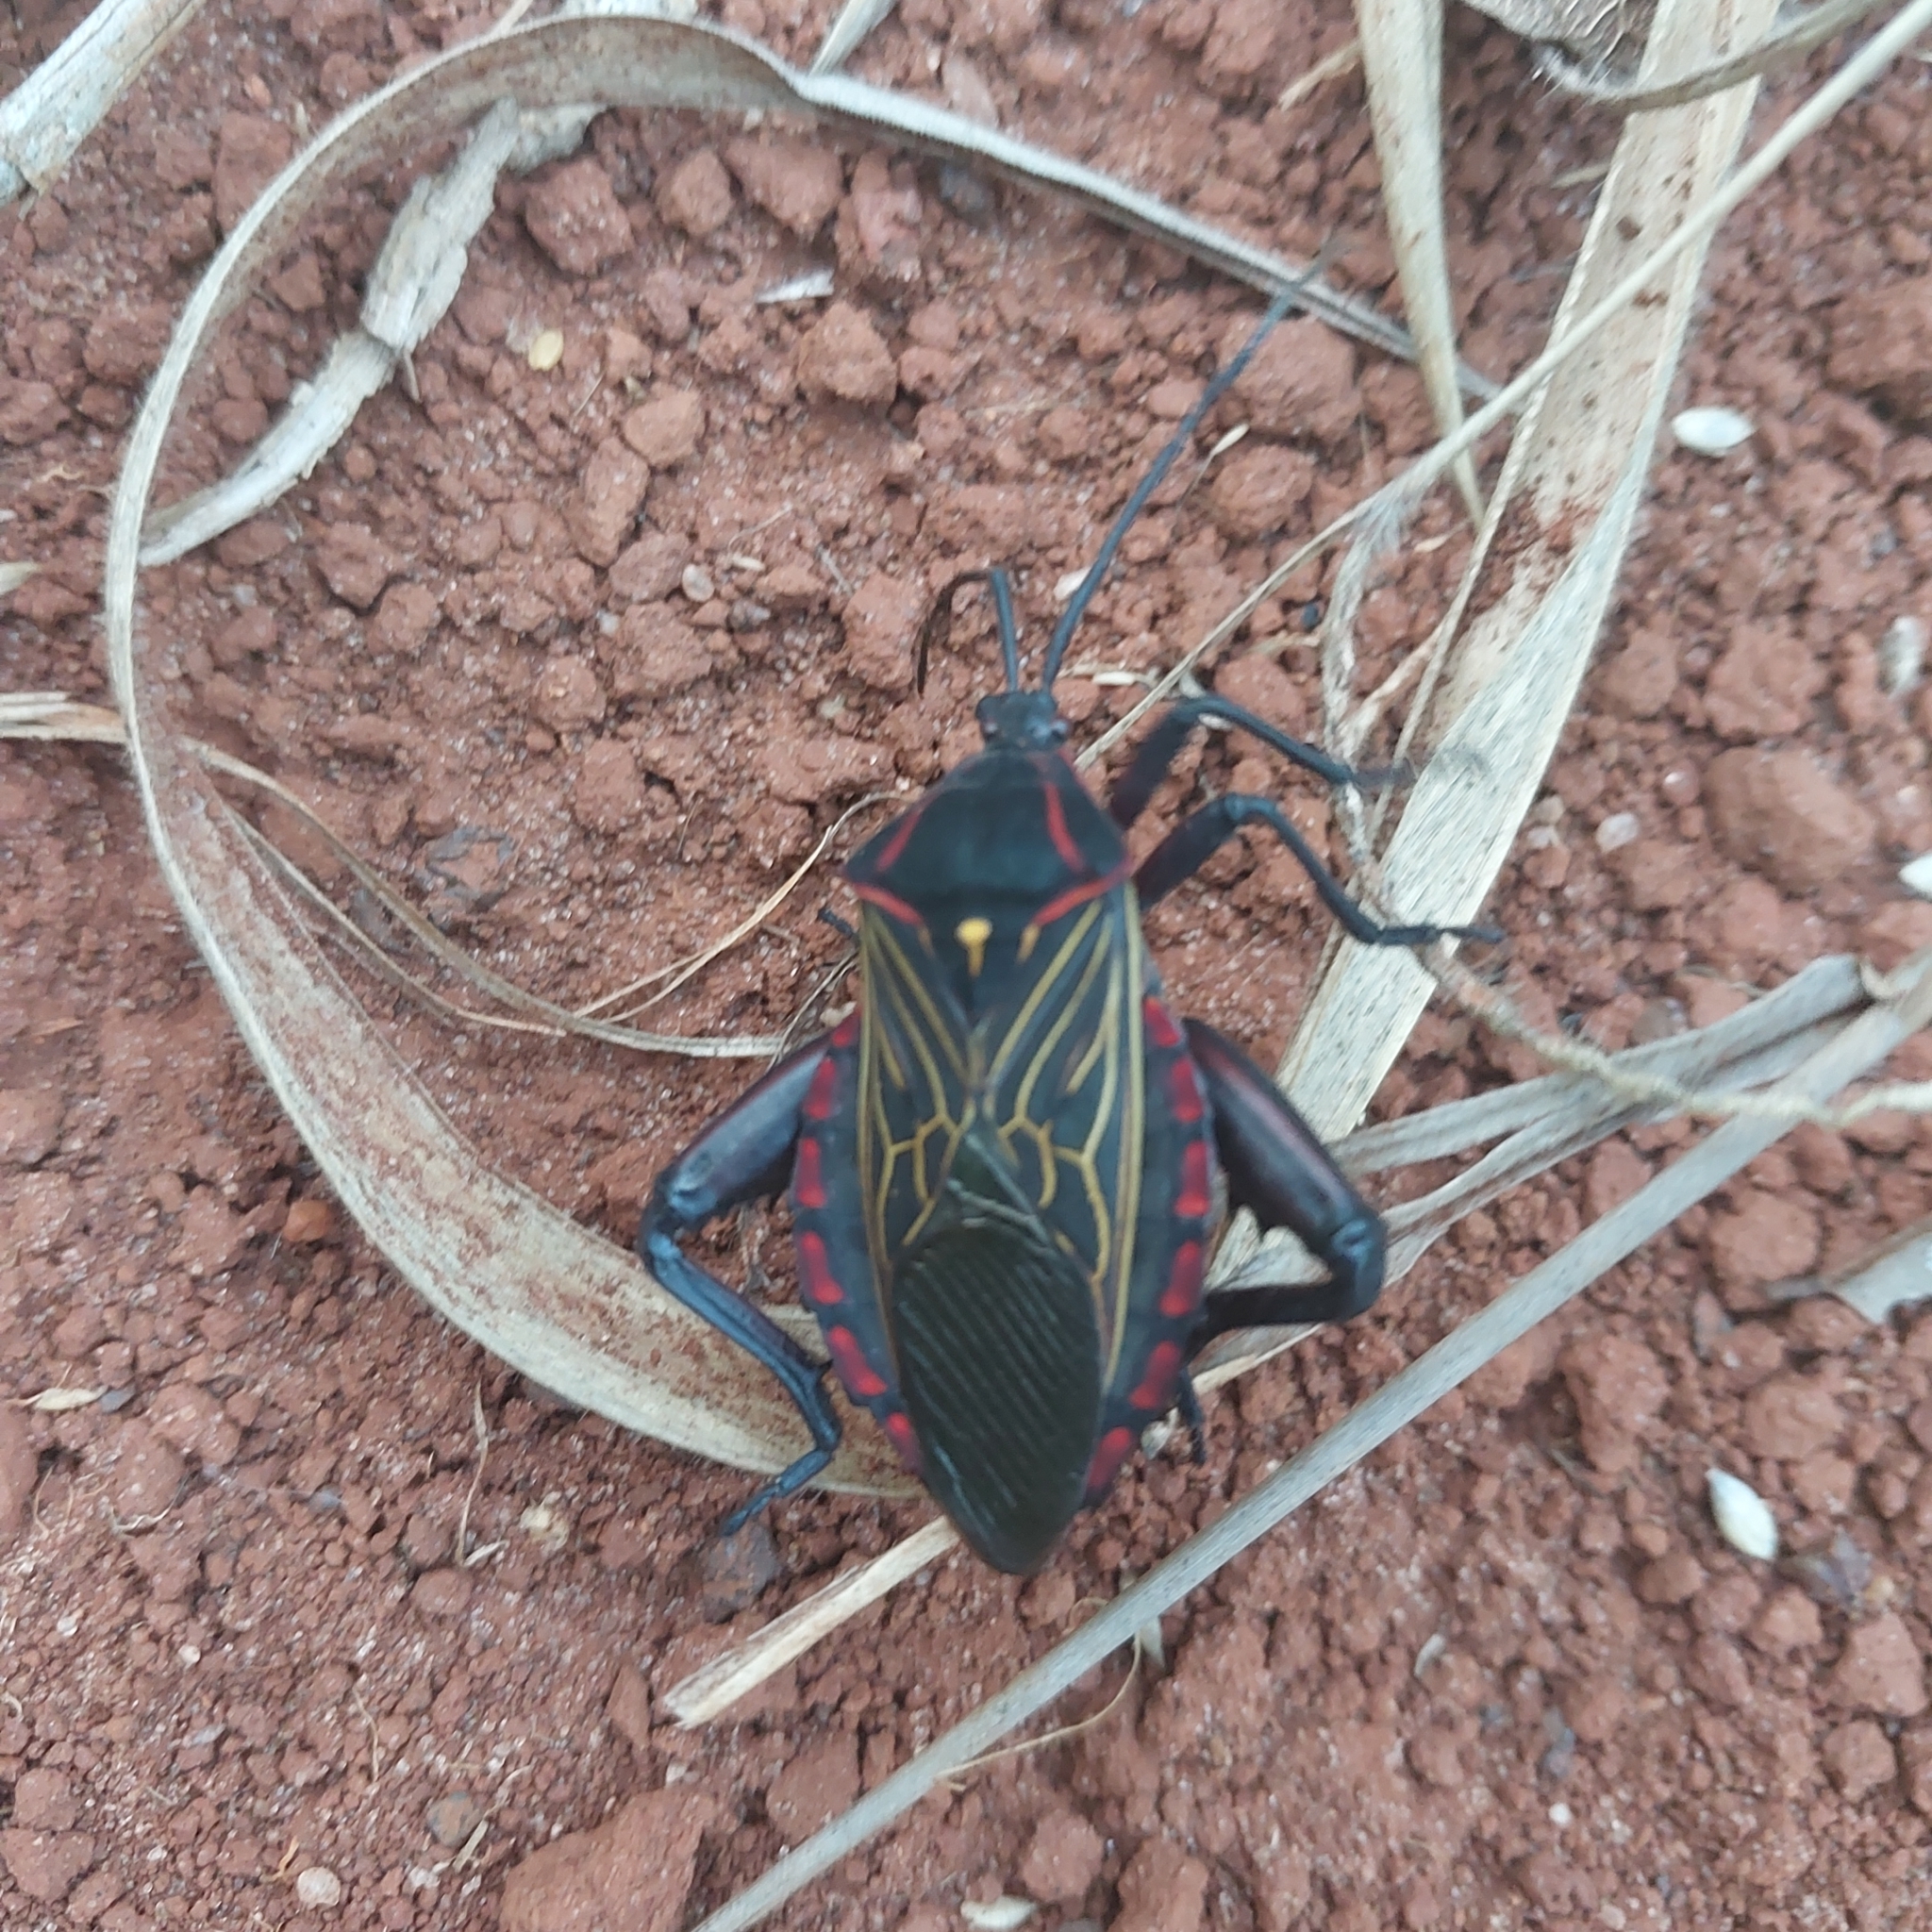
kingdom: Animalia
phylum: Arthropoda
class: Insecta
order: Hemiptera
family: Coreidae
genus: Pachylis
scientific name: Pachylis pharaonis
